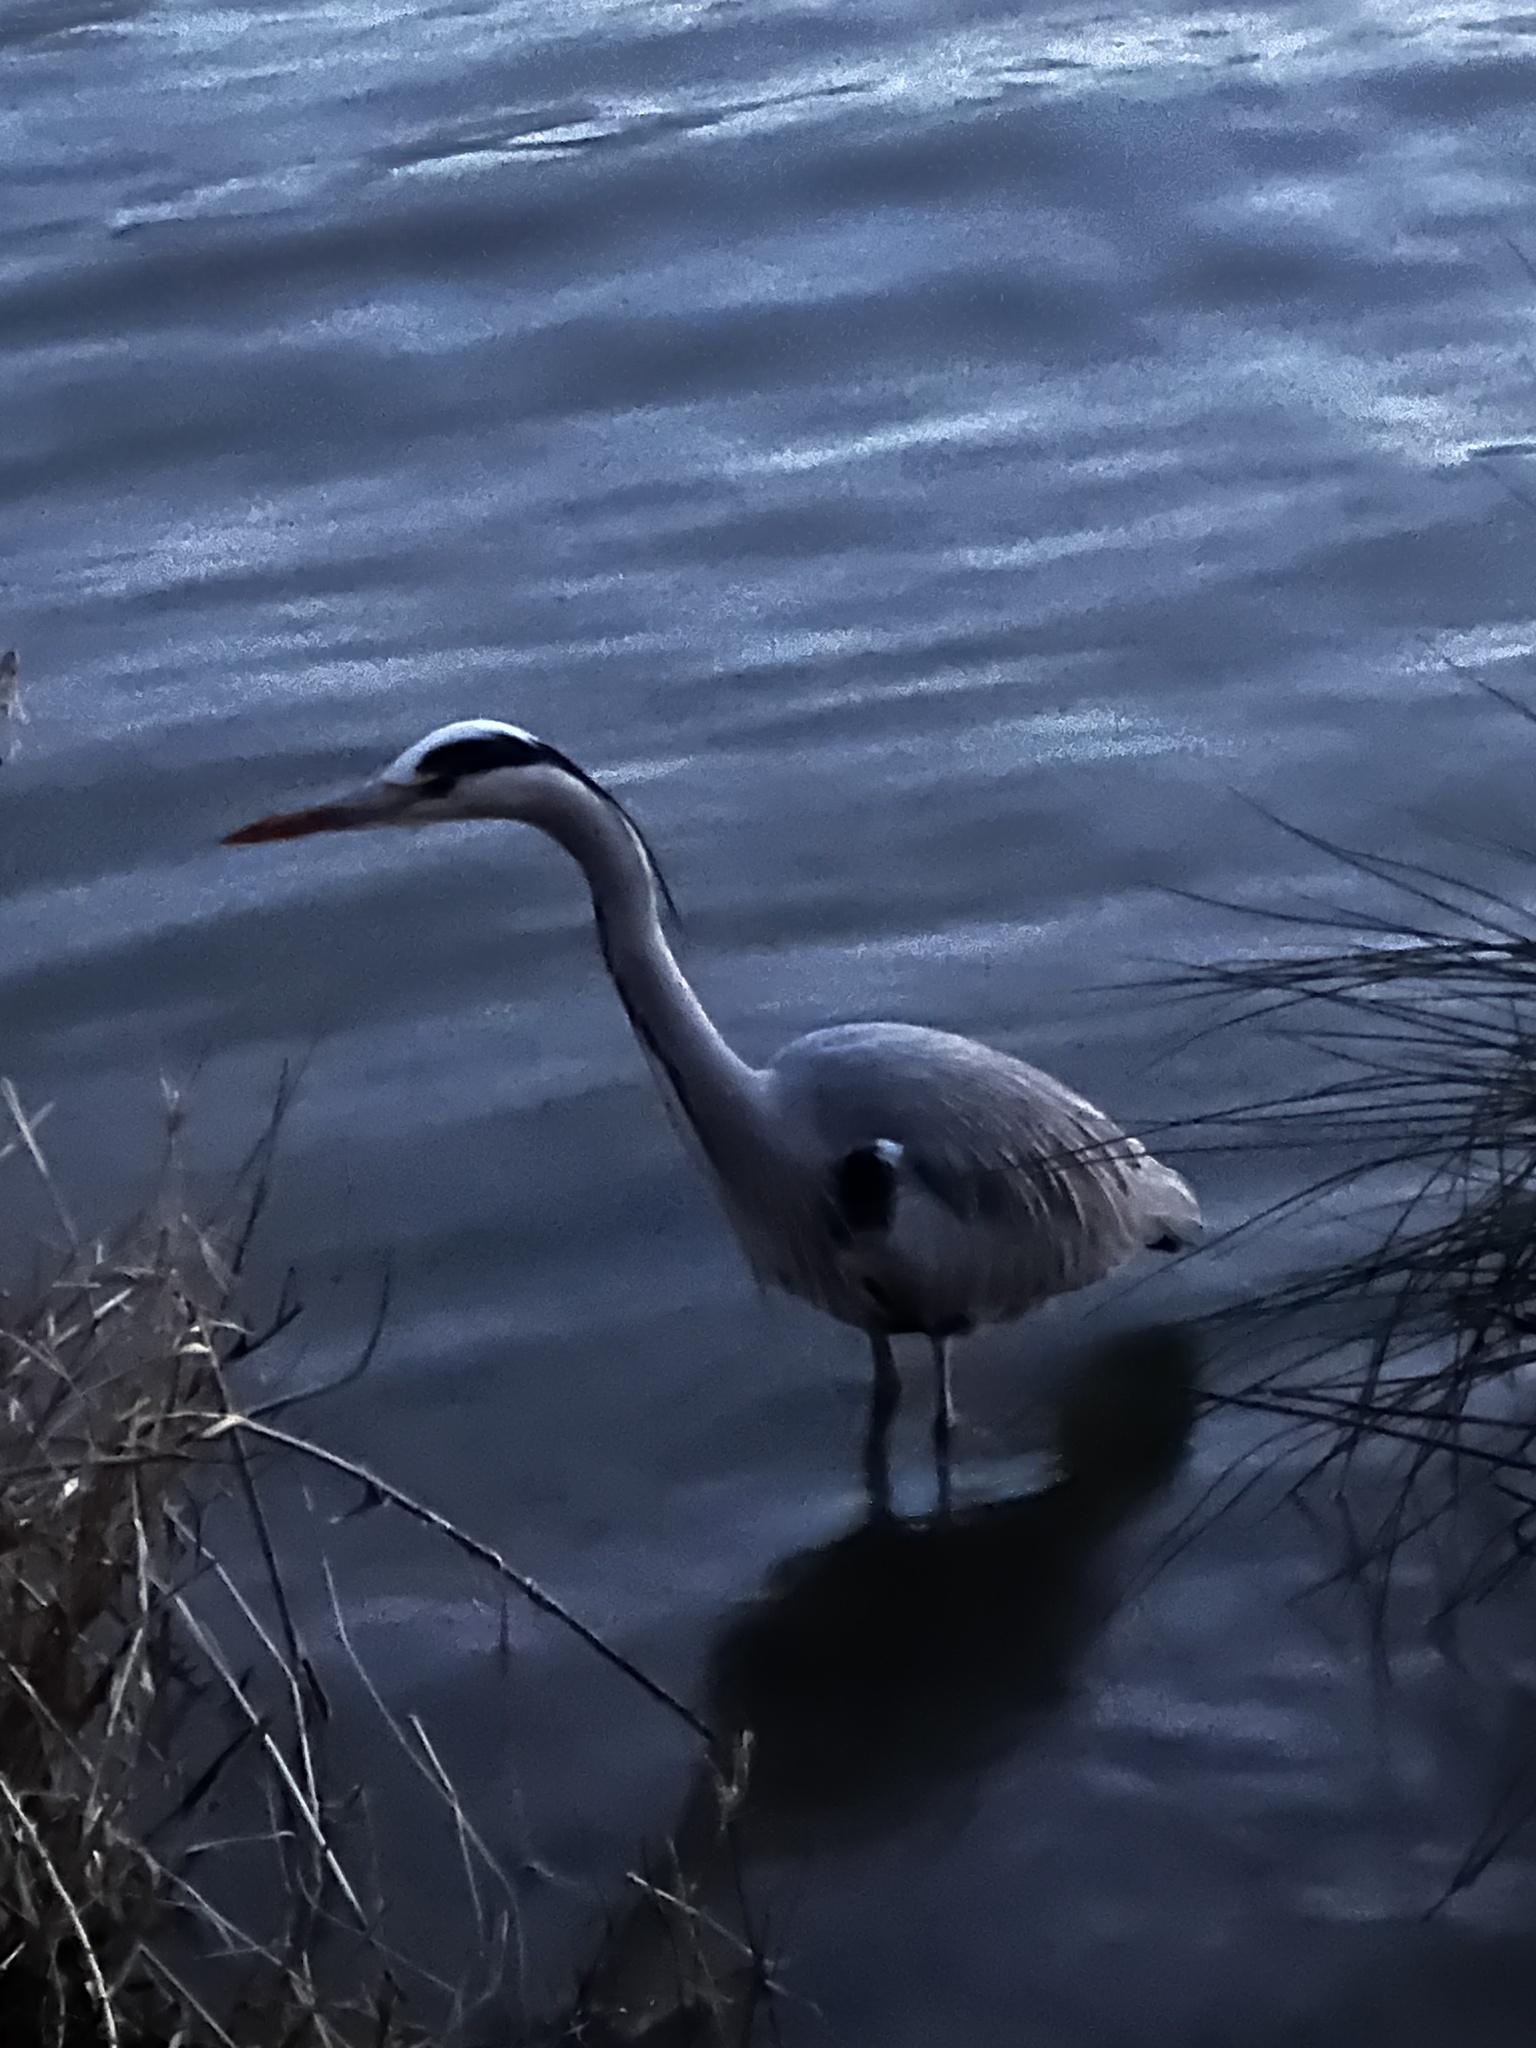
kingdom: Animalia
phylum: Chordata
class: Aves
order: Pelecaniformes
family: Ardeidae
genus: Ardea
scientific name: Ardea cinerea
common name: Grey heron
